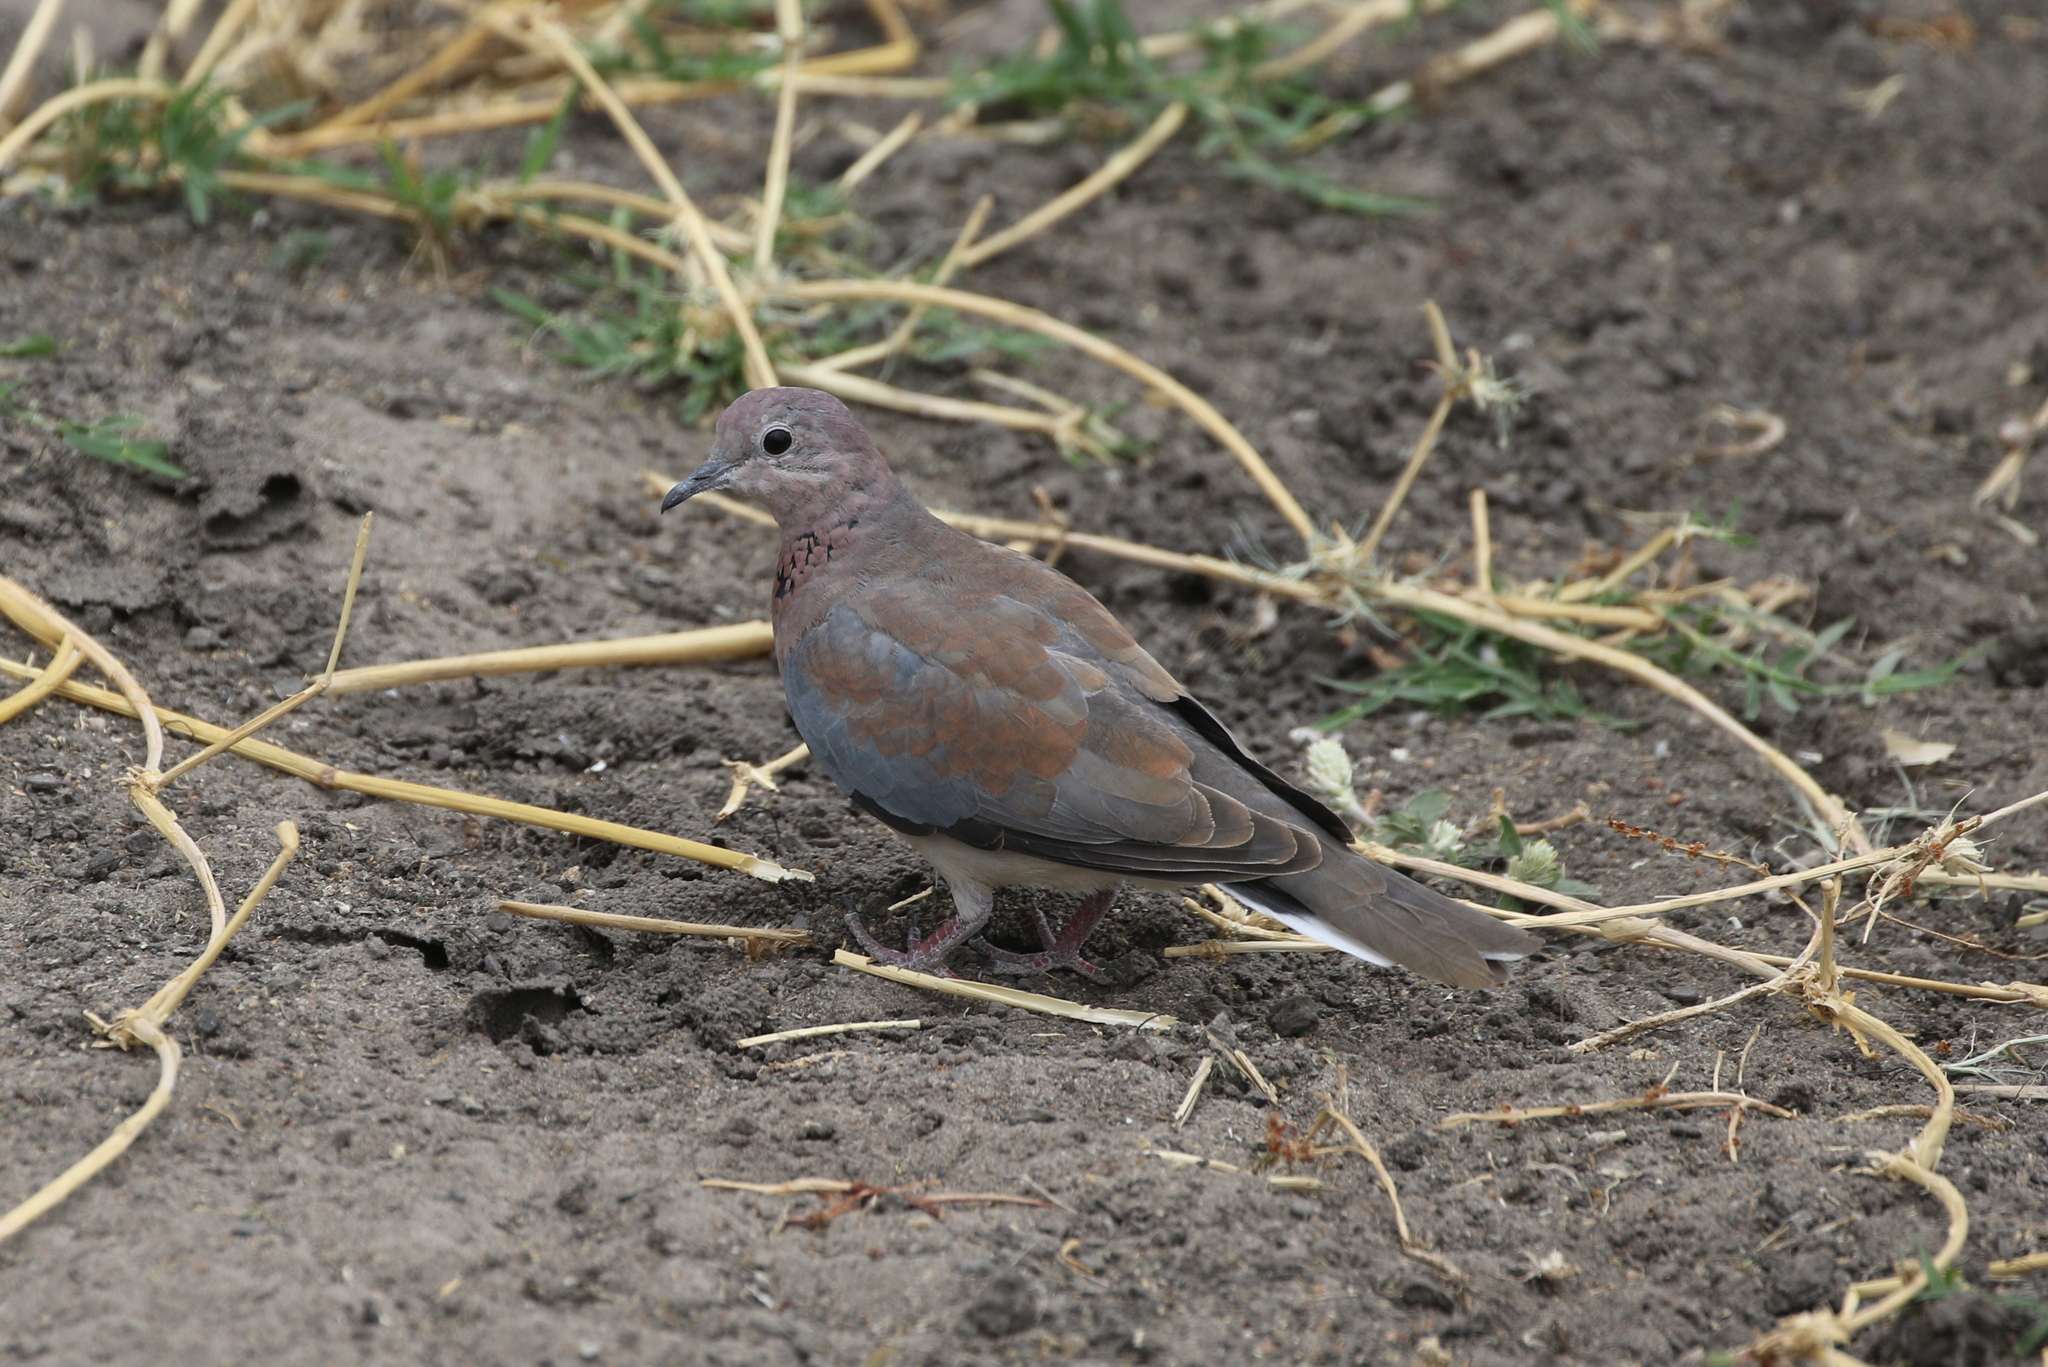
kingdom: Animalia
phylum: Chordata
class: Aves
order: Columbiformes
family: Columbidae
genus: Spilopelia
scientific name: Spilopelia senegalensis
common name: Laughing dove
